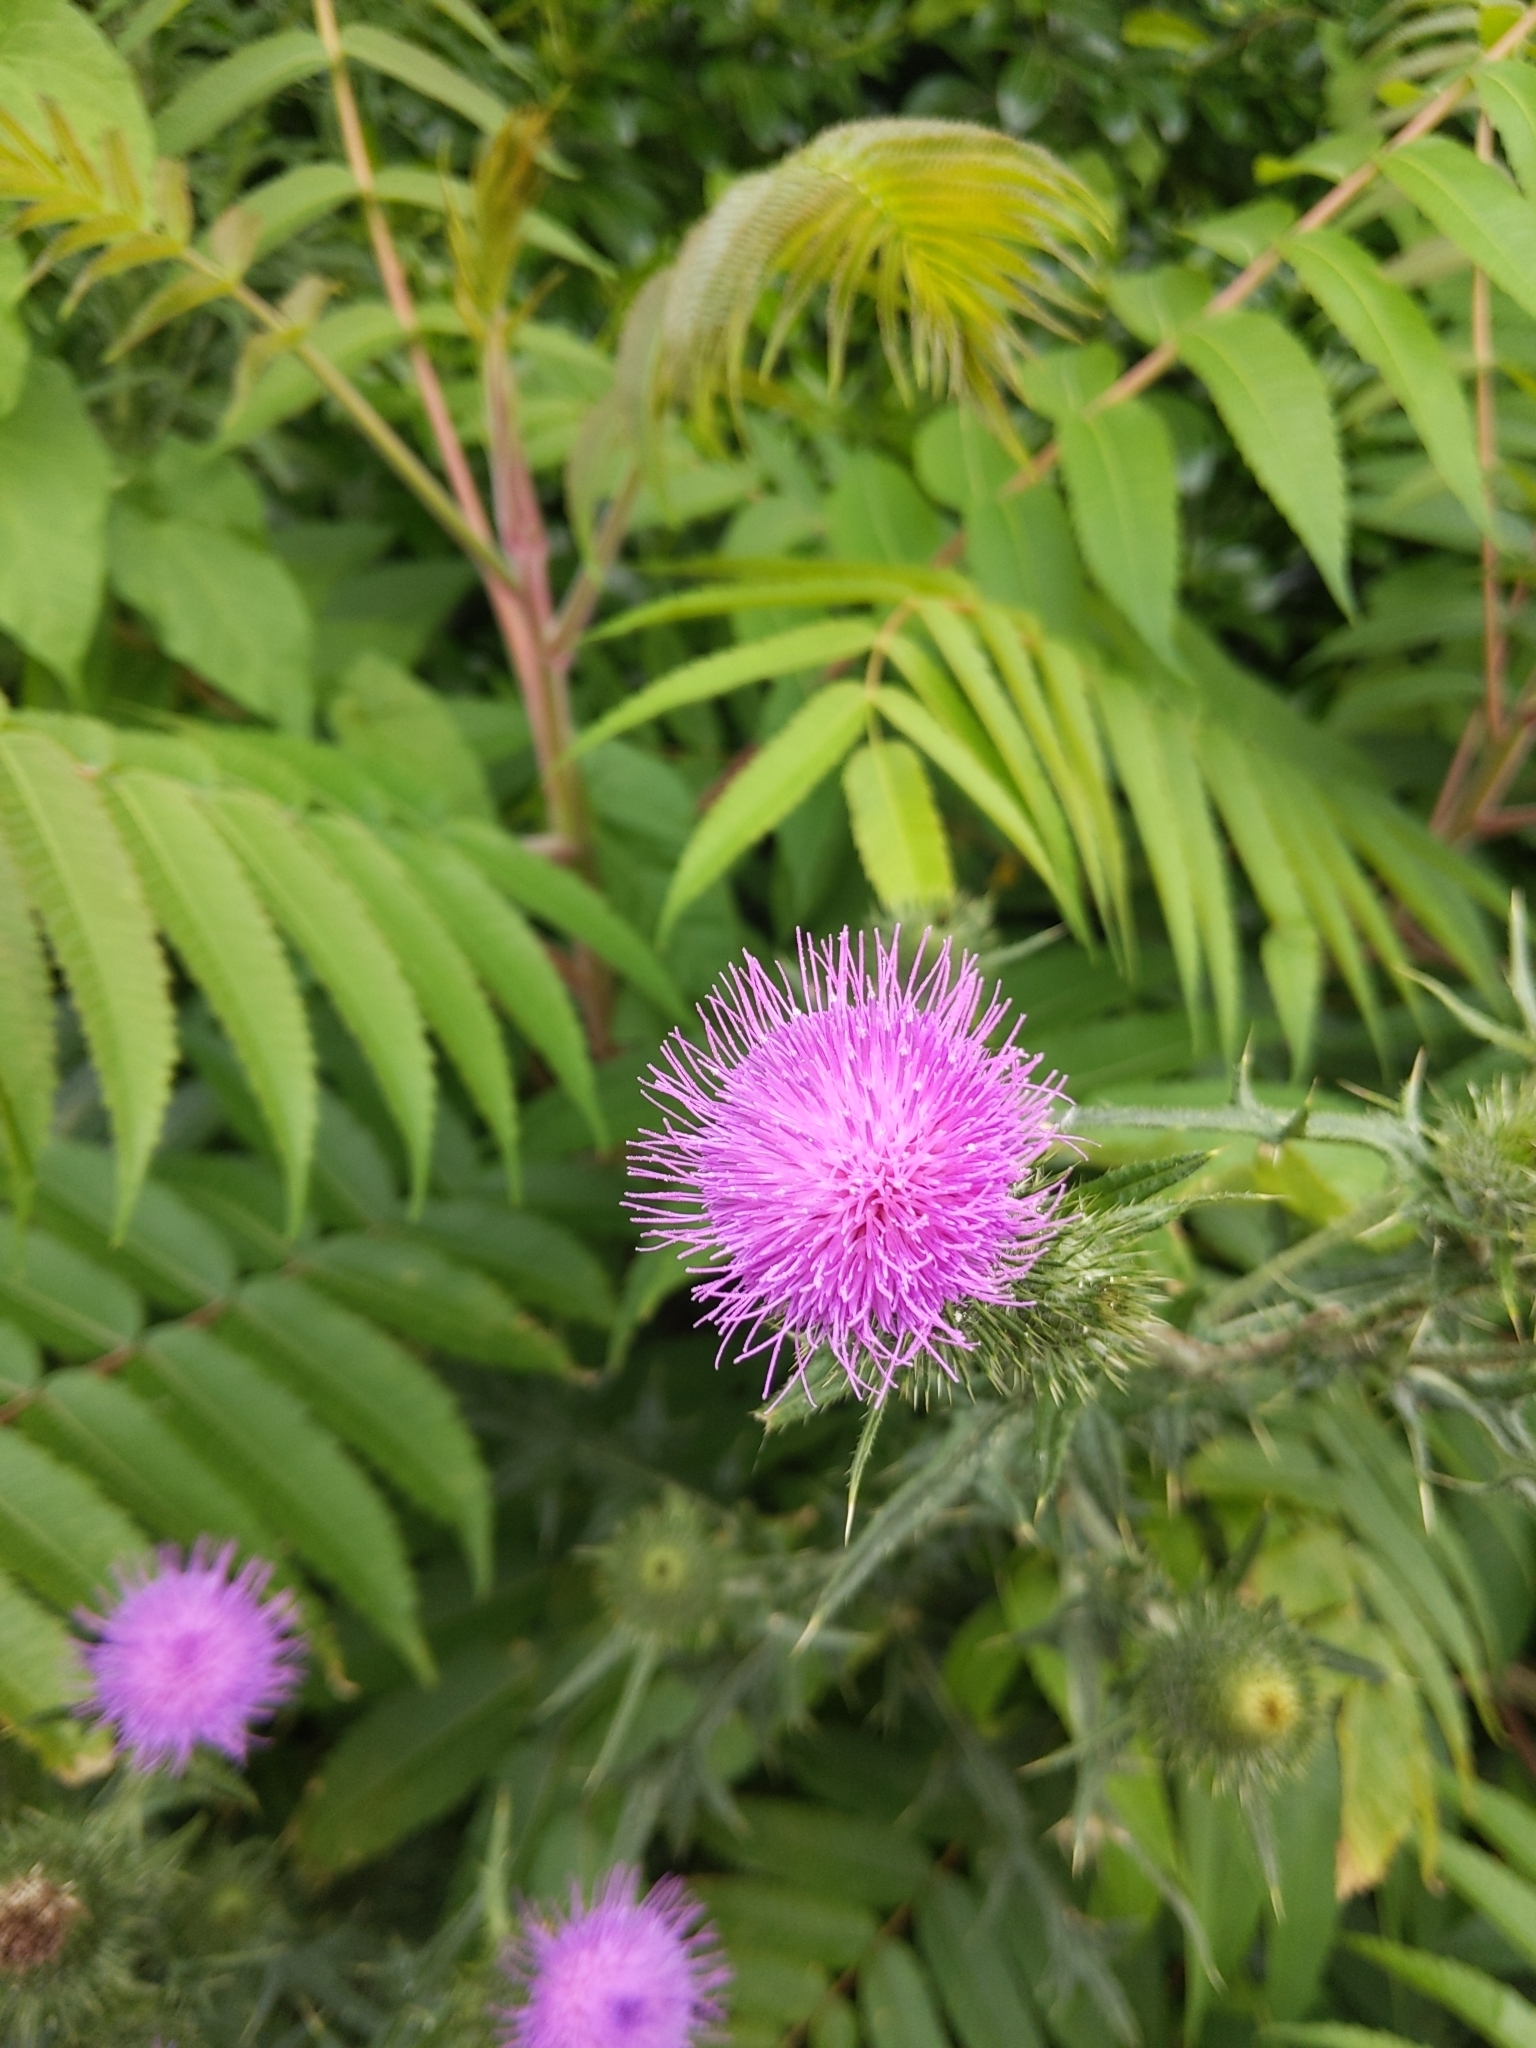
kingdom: Plantae
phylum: Tracheophyta
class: Magnoliopsida
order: Asterales
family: Asteraceae
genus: Cirsium
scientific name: Cirsium vulgare
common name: Bull thistle
